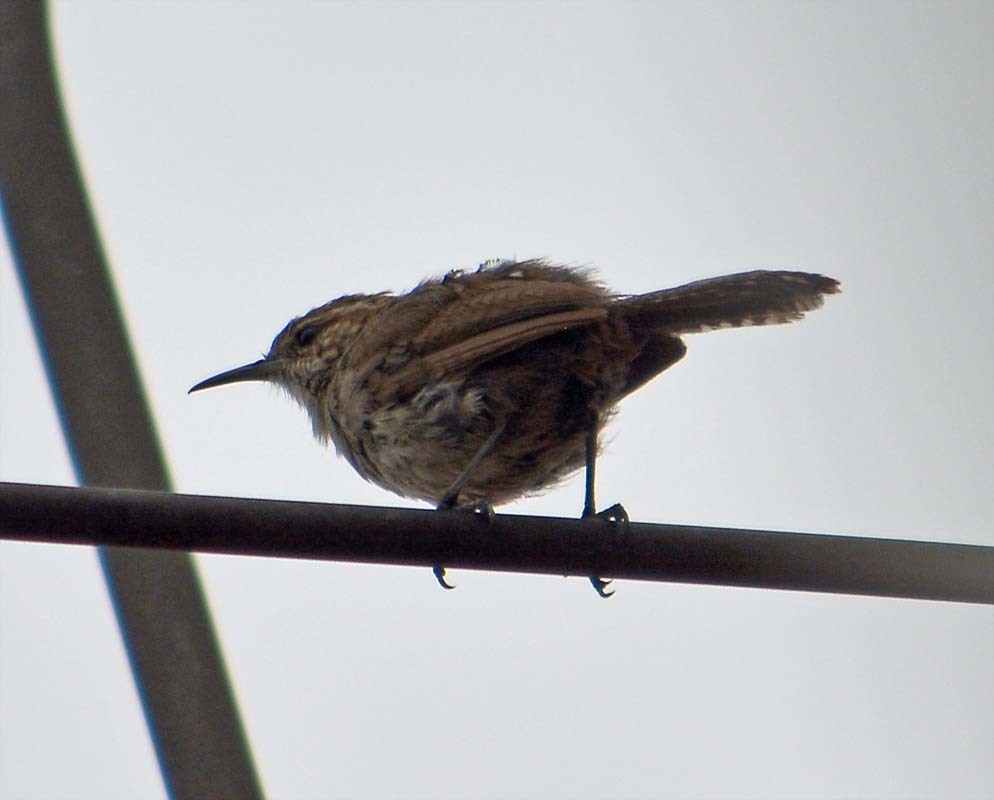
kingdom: Animalia
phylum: Chordata
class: Aves
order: Passeriformes
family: Troglodytidae
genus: Thryomanes
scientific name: Thryomanes bewickii
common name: Bewick's wren
